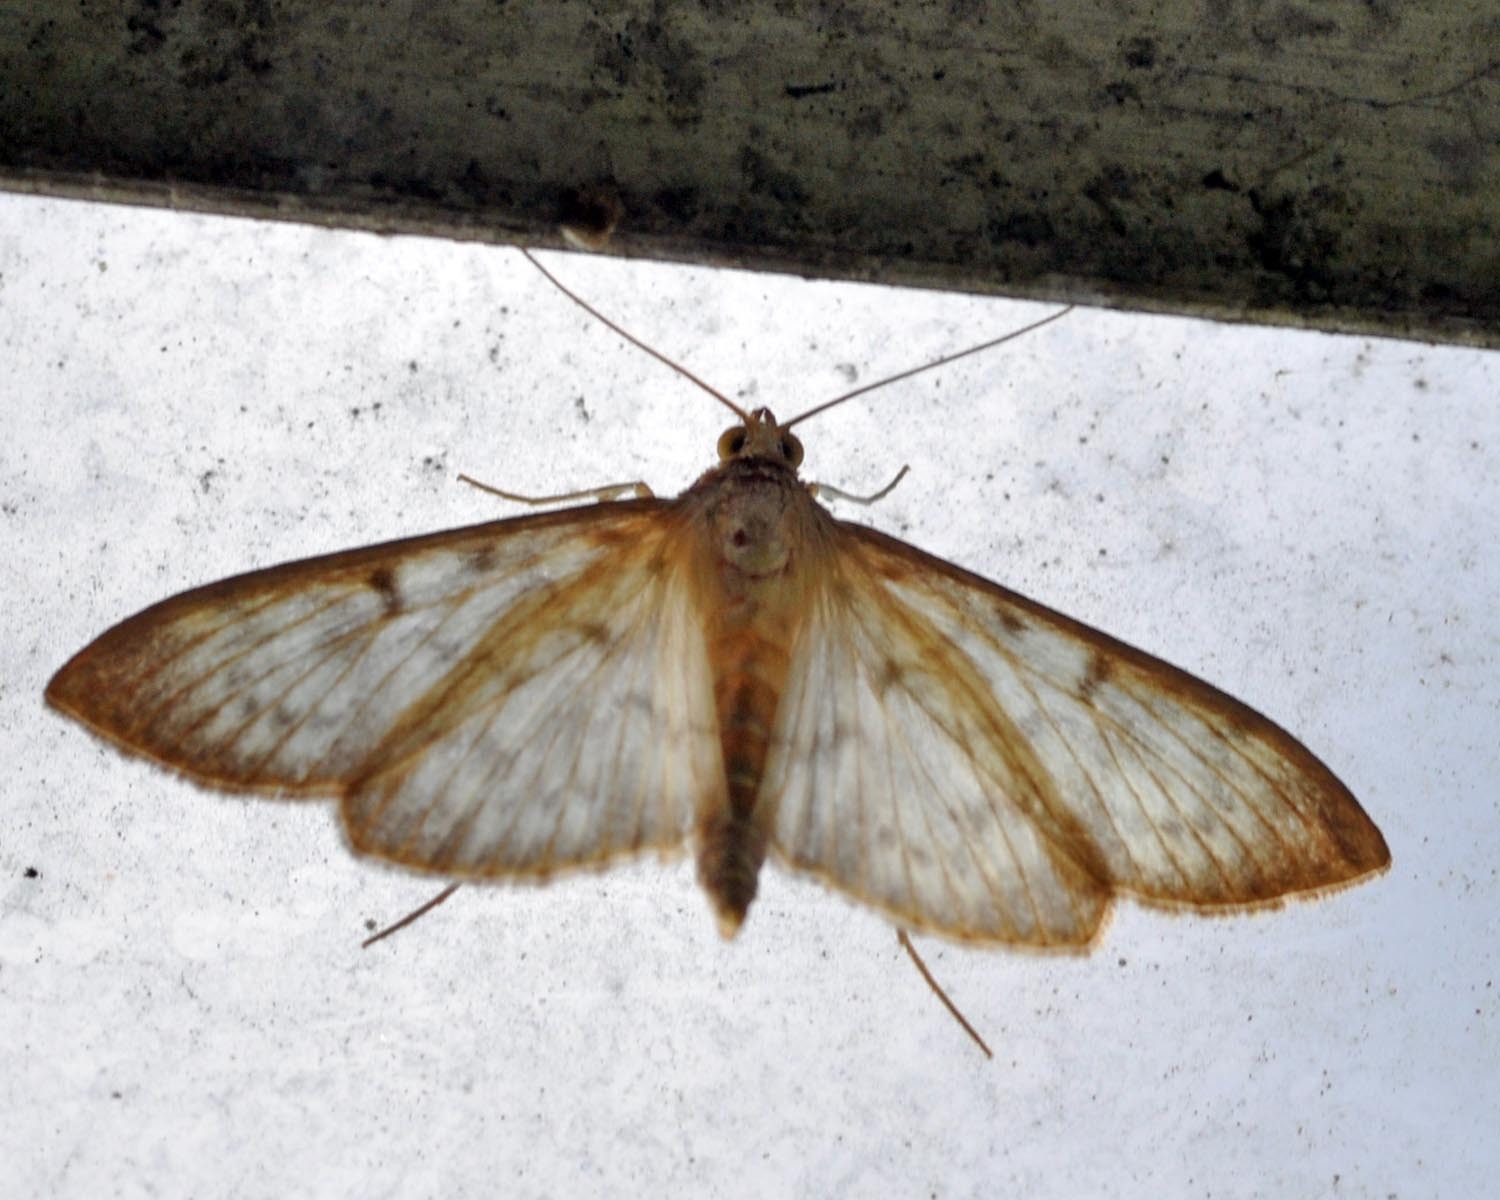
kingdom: Animalia
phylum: Arthropoda
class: Insecta
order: Lepidoptera
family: Crambidae
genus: Patania
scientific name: Patania ruralis
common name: Mother of pearl
